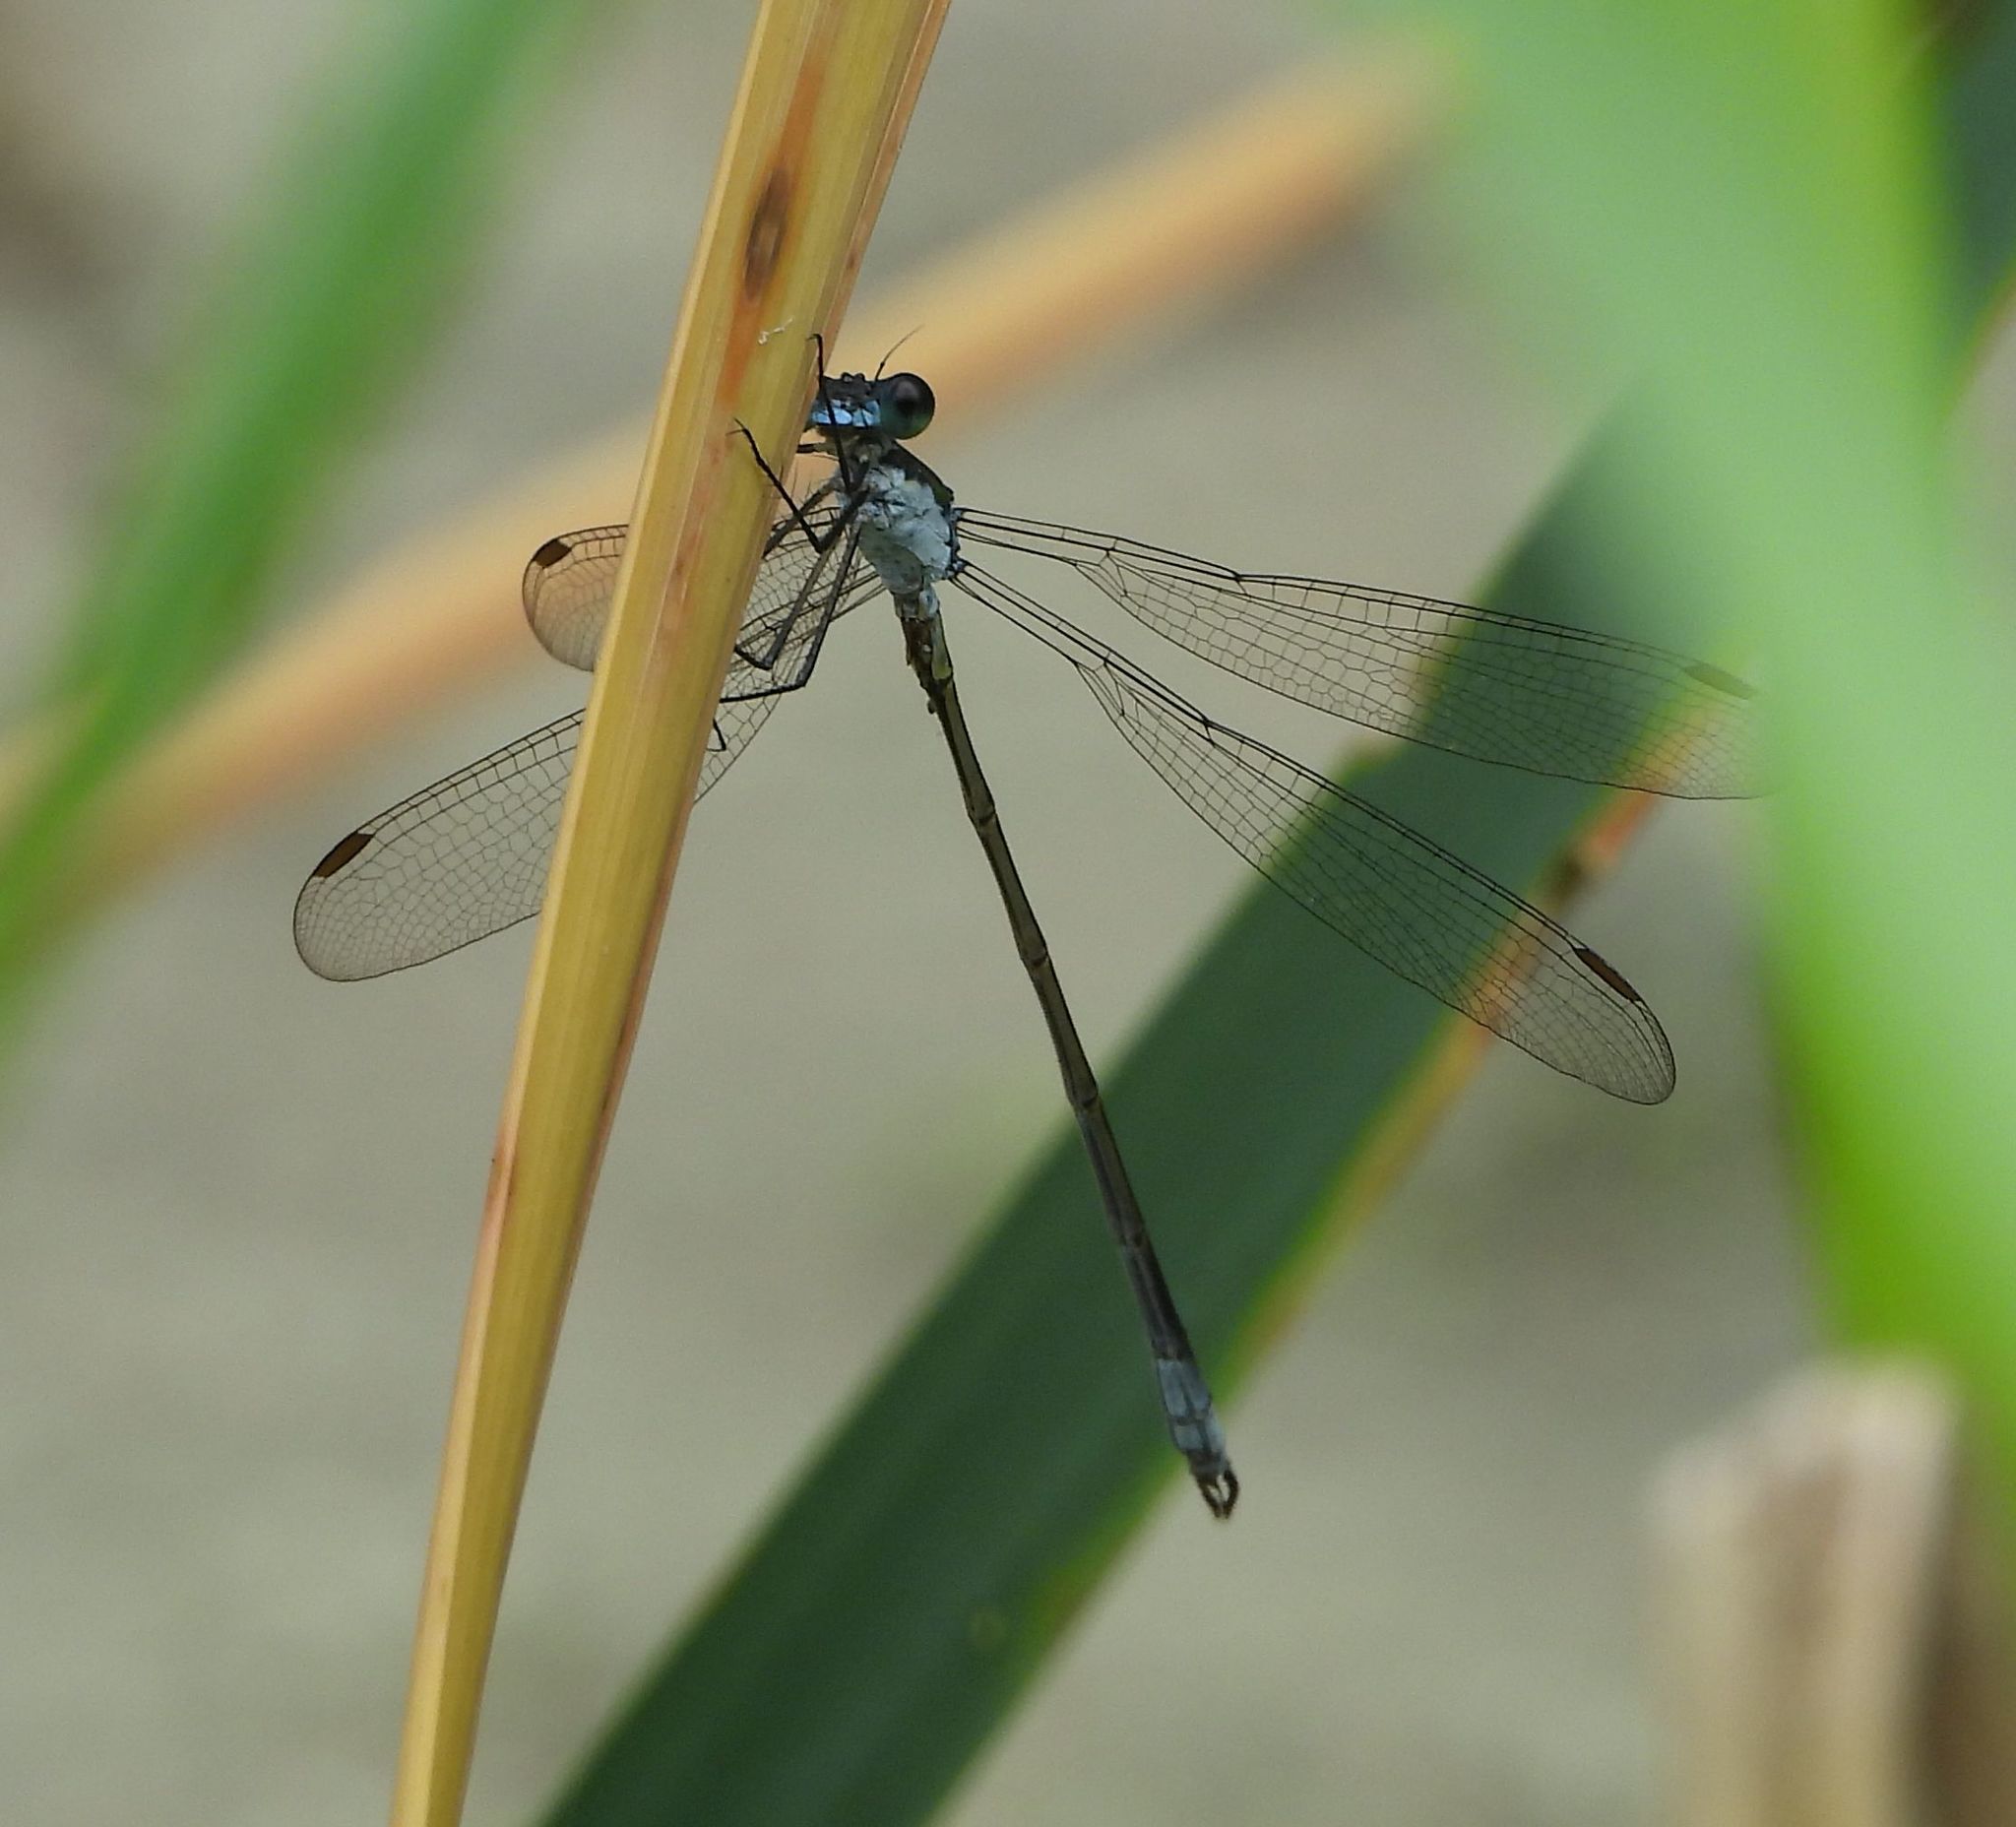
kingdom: Animalia
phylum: Arthropoda
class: Insecta
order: Odonata
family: Lestidae
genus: Lestes
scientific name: Lestes vigilax
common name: Swamp spreadwing
